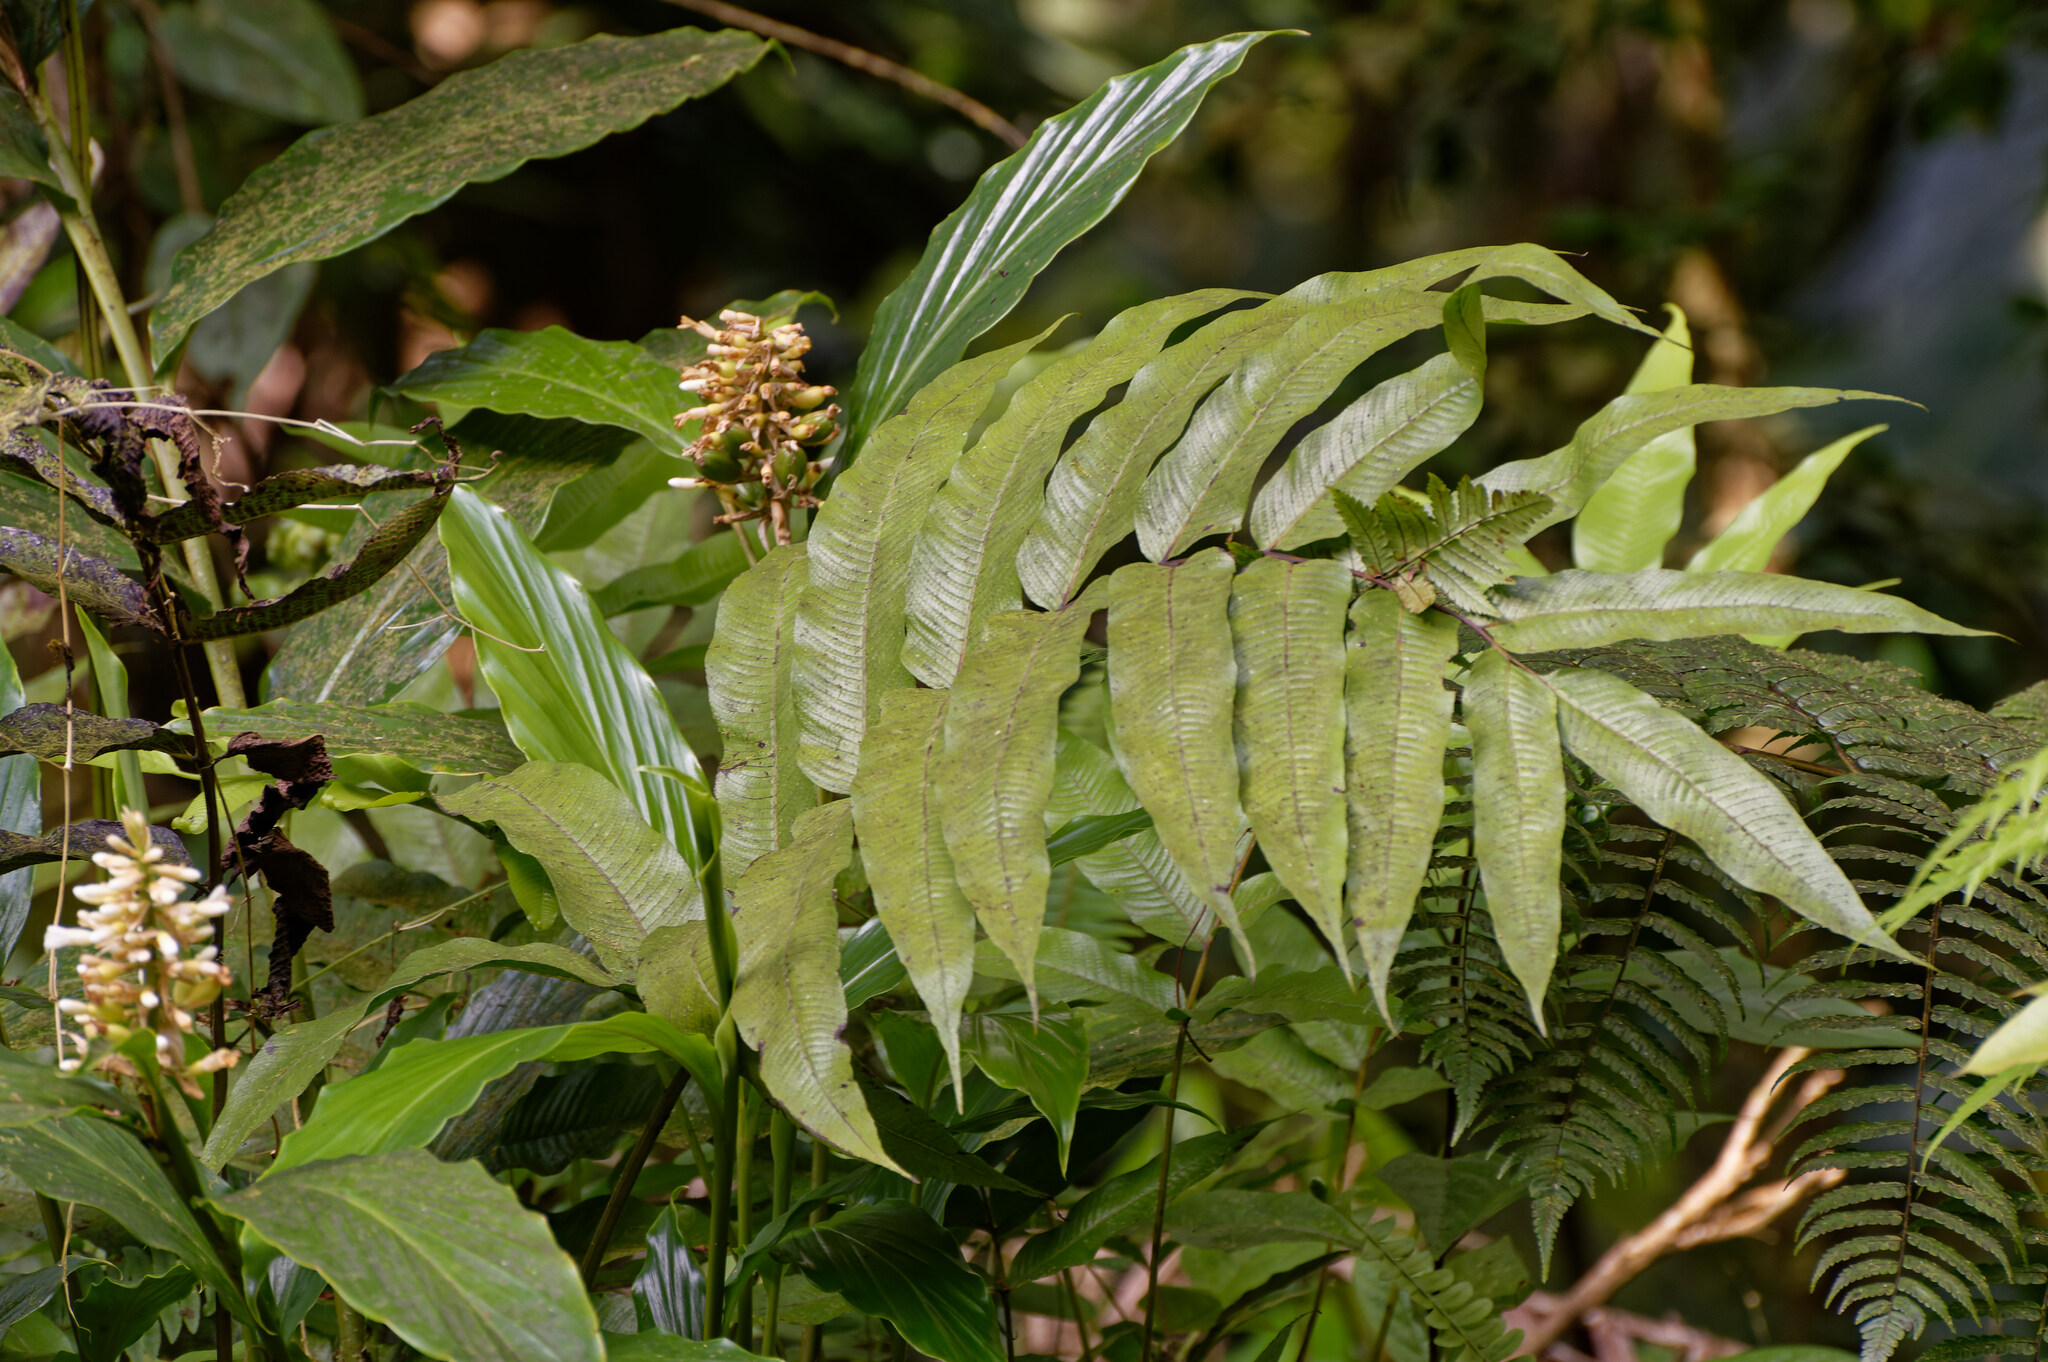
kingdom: Plantae
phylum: Tracheophyta
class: Polypodiopsida
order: Polypodiales
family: Thelypteridaceae
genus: Meniscium
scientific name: Meniscium reticulatum
